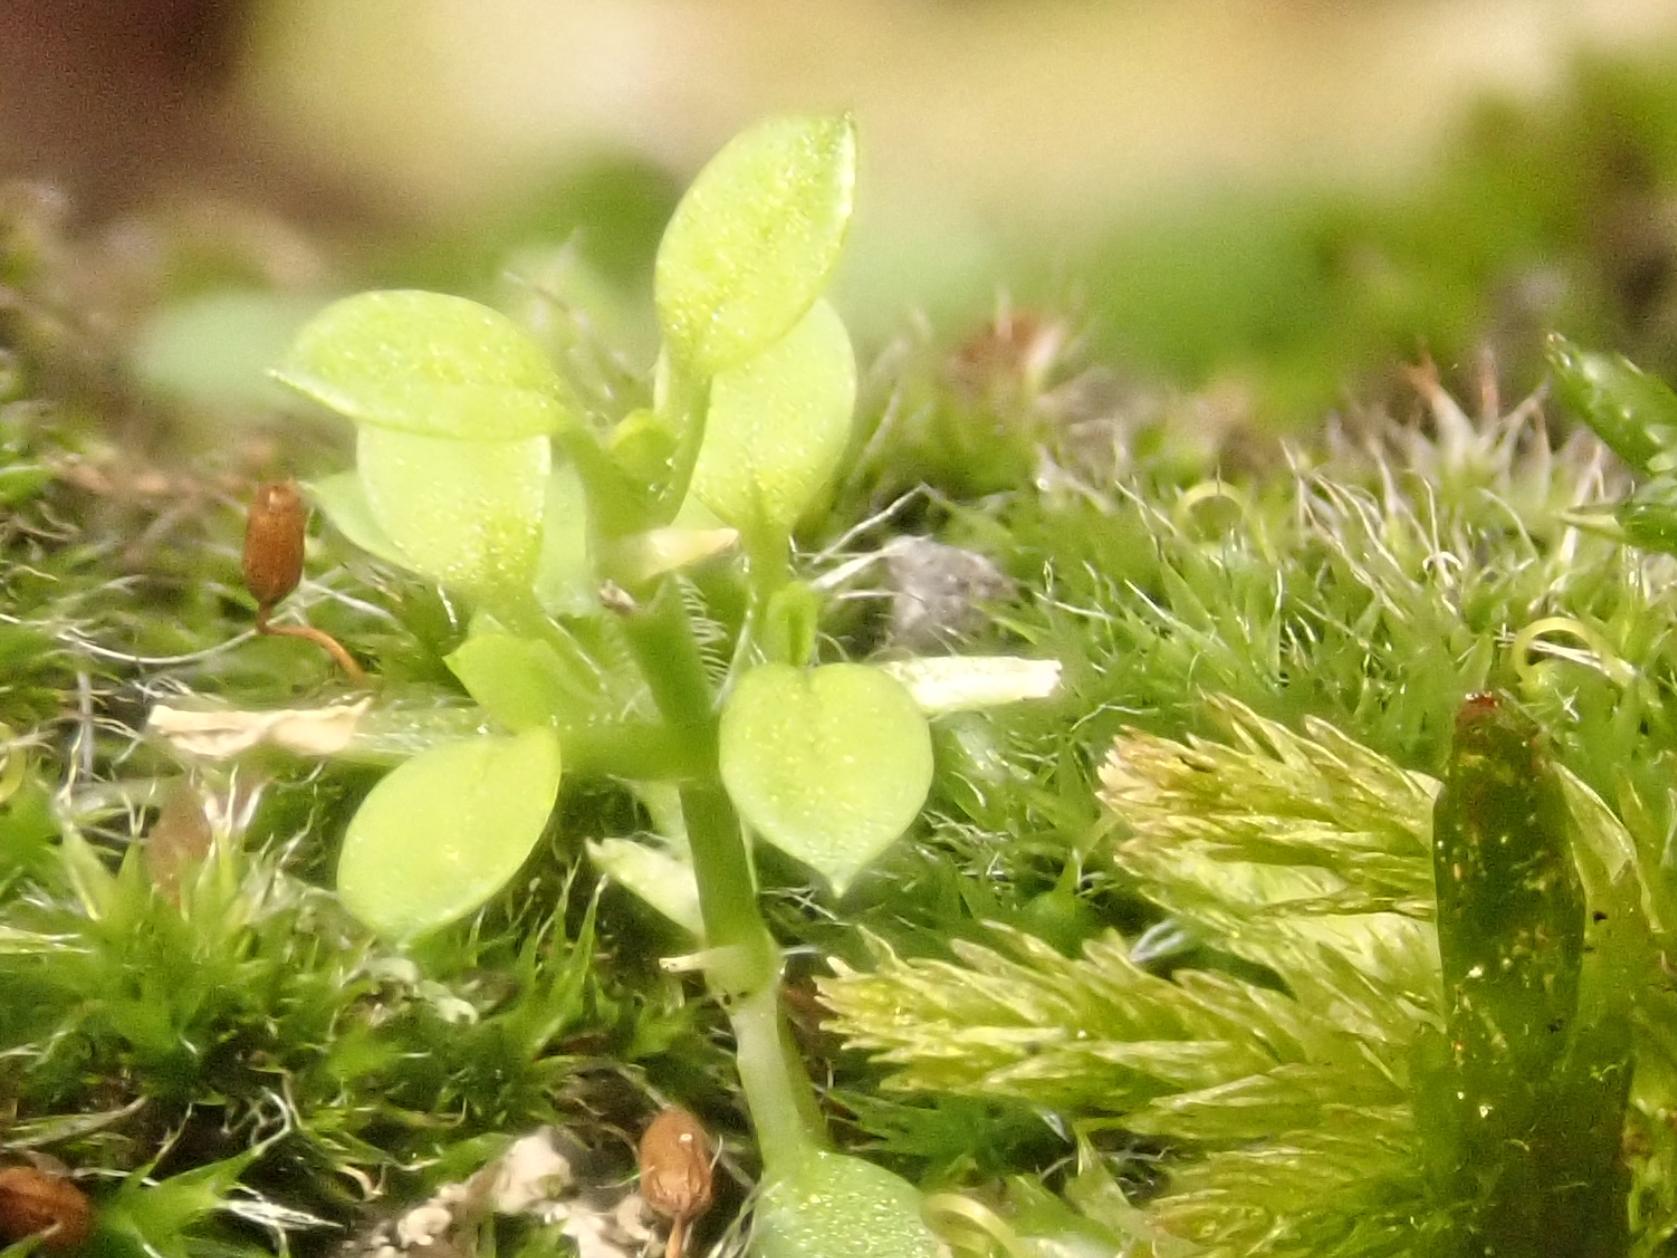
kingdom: Plantae
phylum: Tracheophyta
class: Magnoliopsida
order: Caryophyllales
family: Caryophyllaceae
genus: Stellaria
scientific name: Stellaria media
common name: Common chickweed
